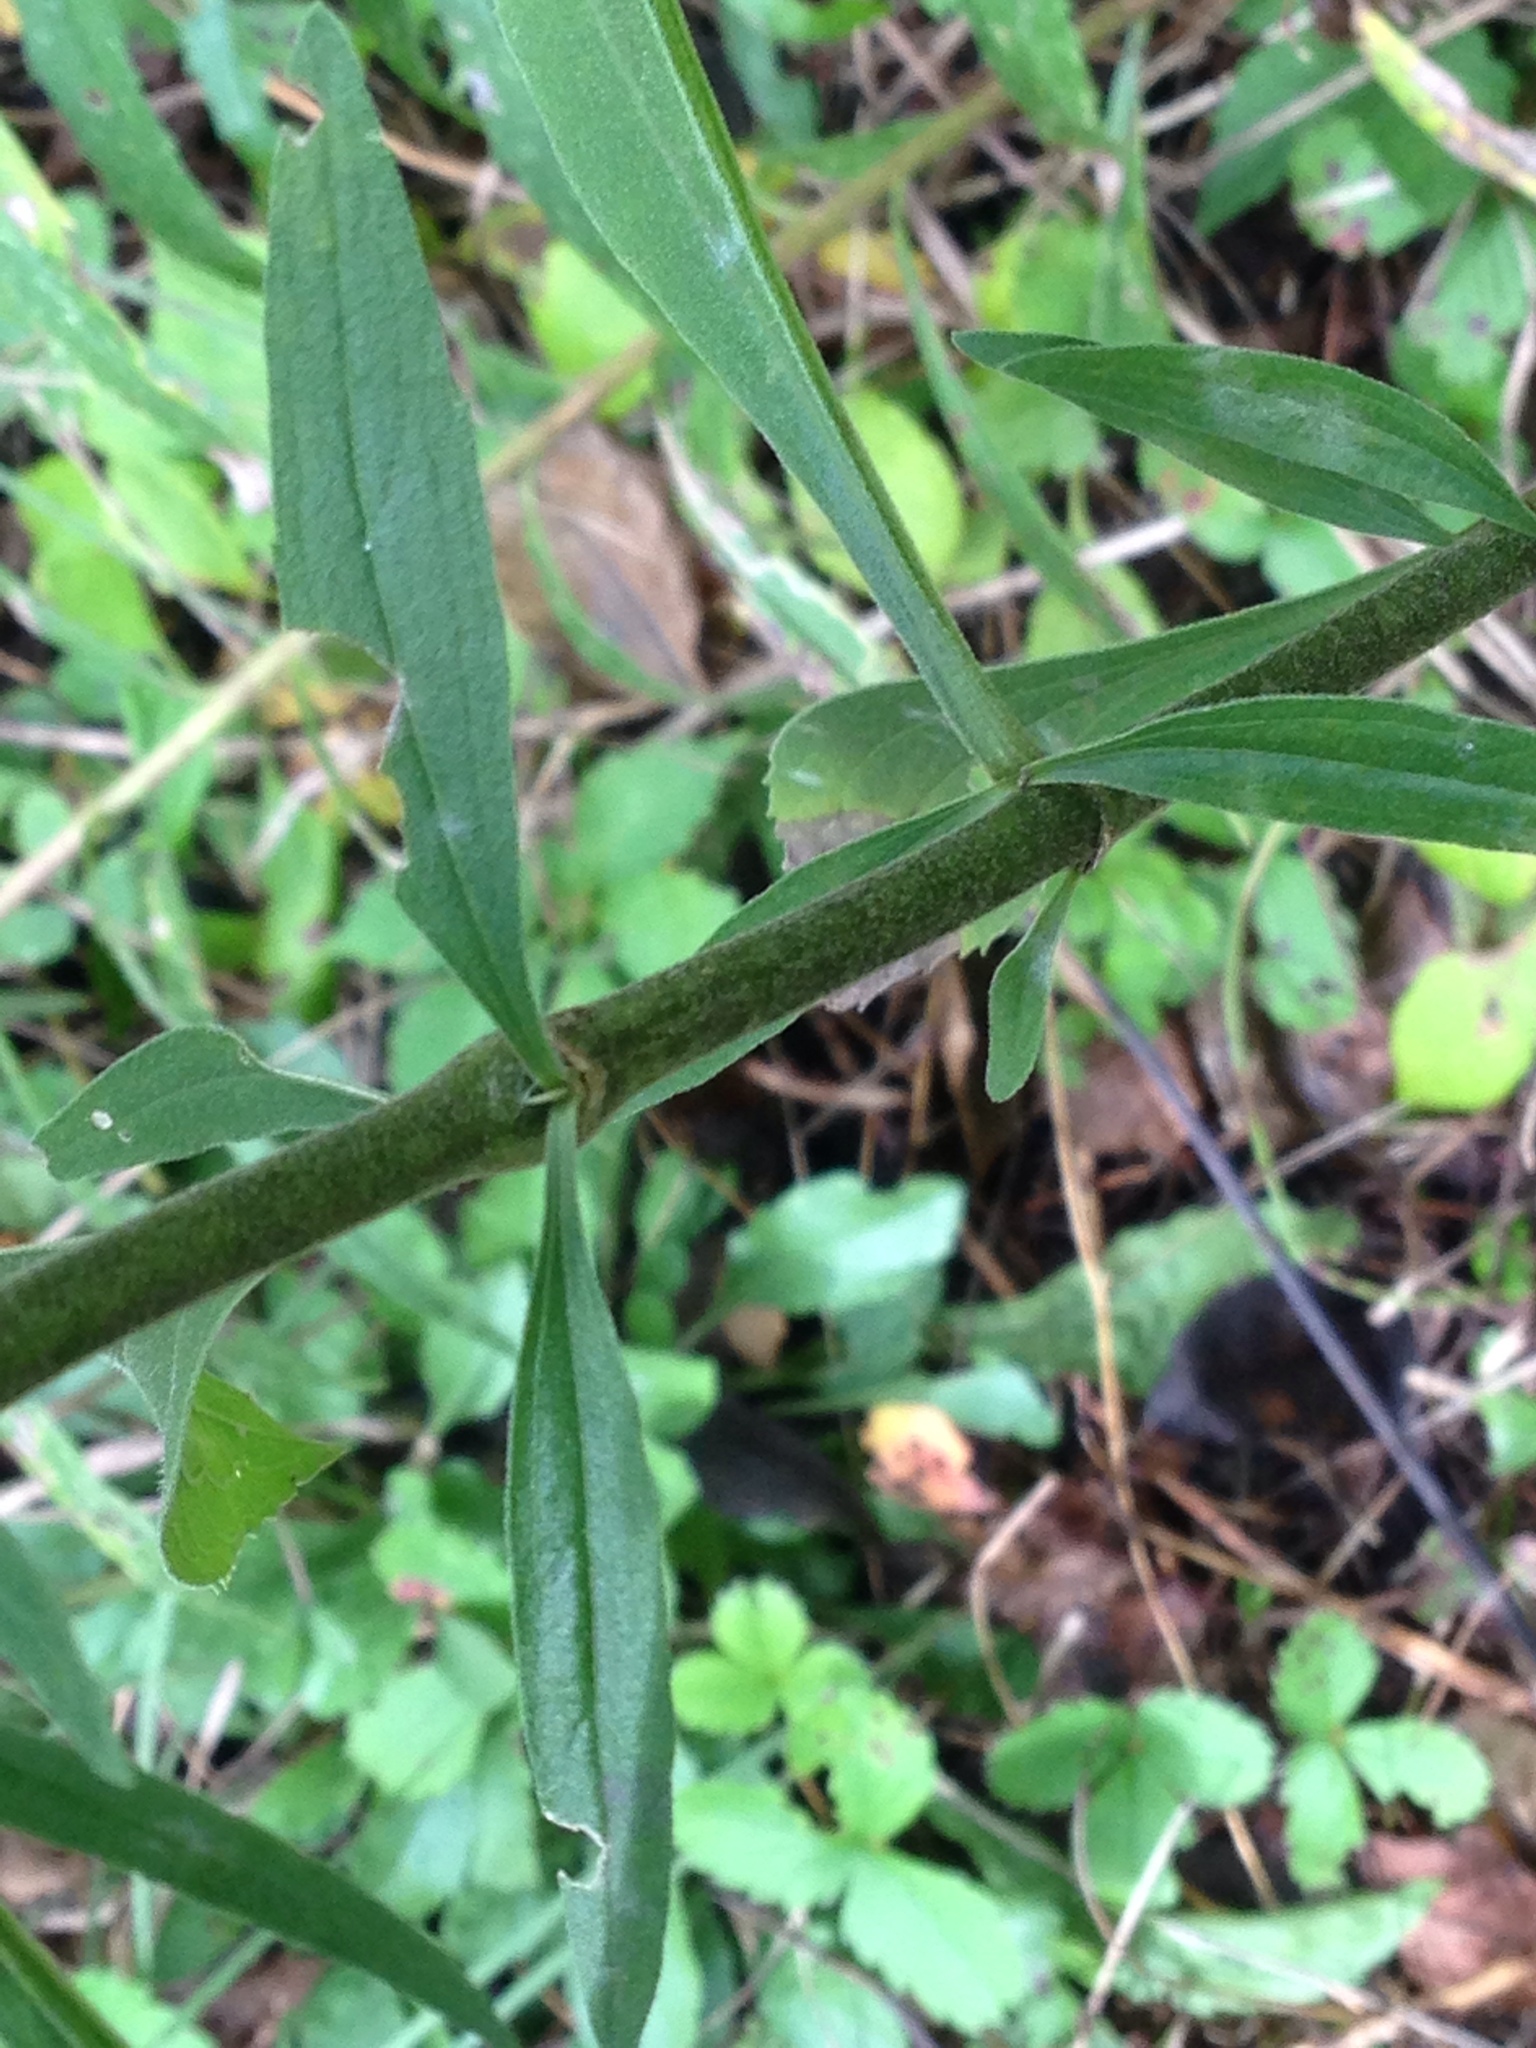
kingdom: Plantae
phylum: Tracheophyta
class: Magnoliopsida
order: Asterales
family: Asteraceae
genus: Eupatorium
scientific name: Eupatorium altissimum
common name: Tall thoroughwort
